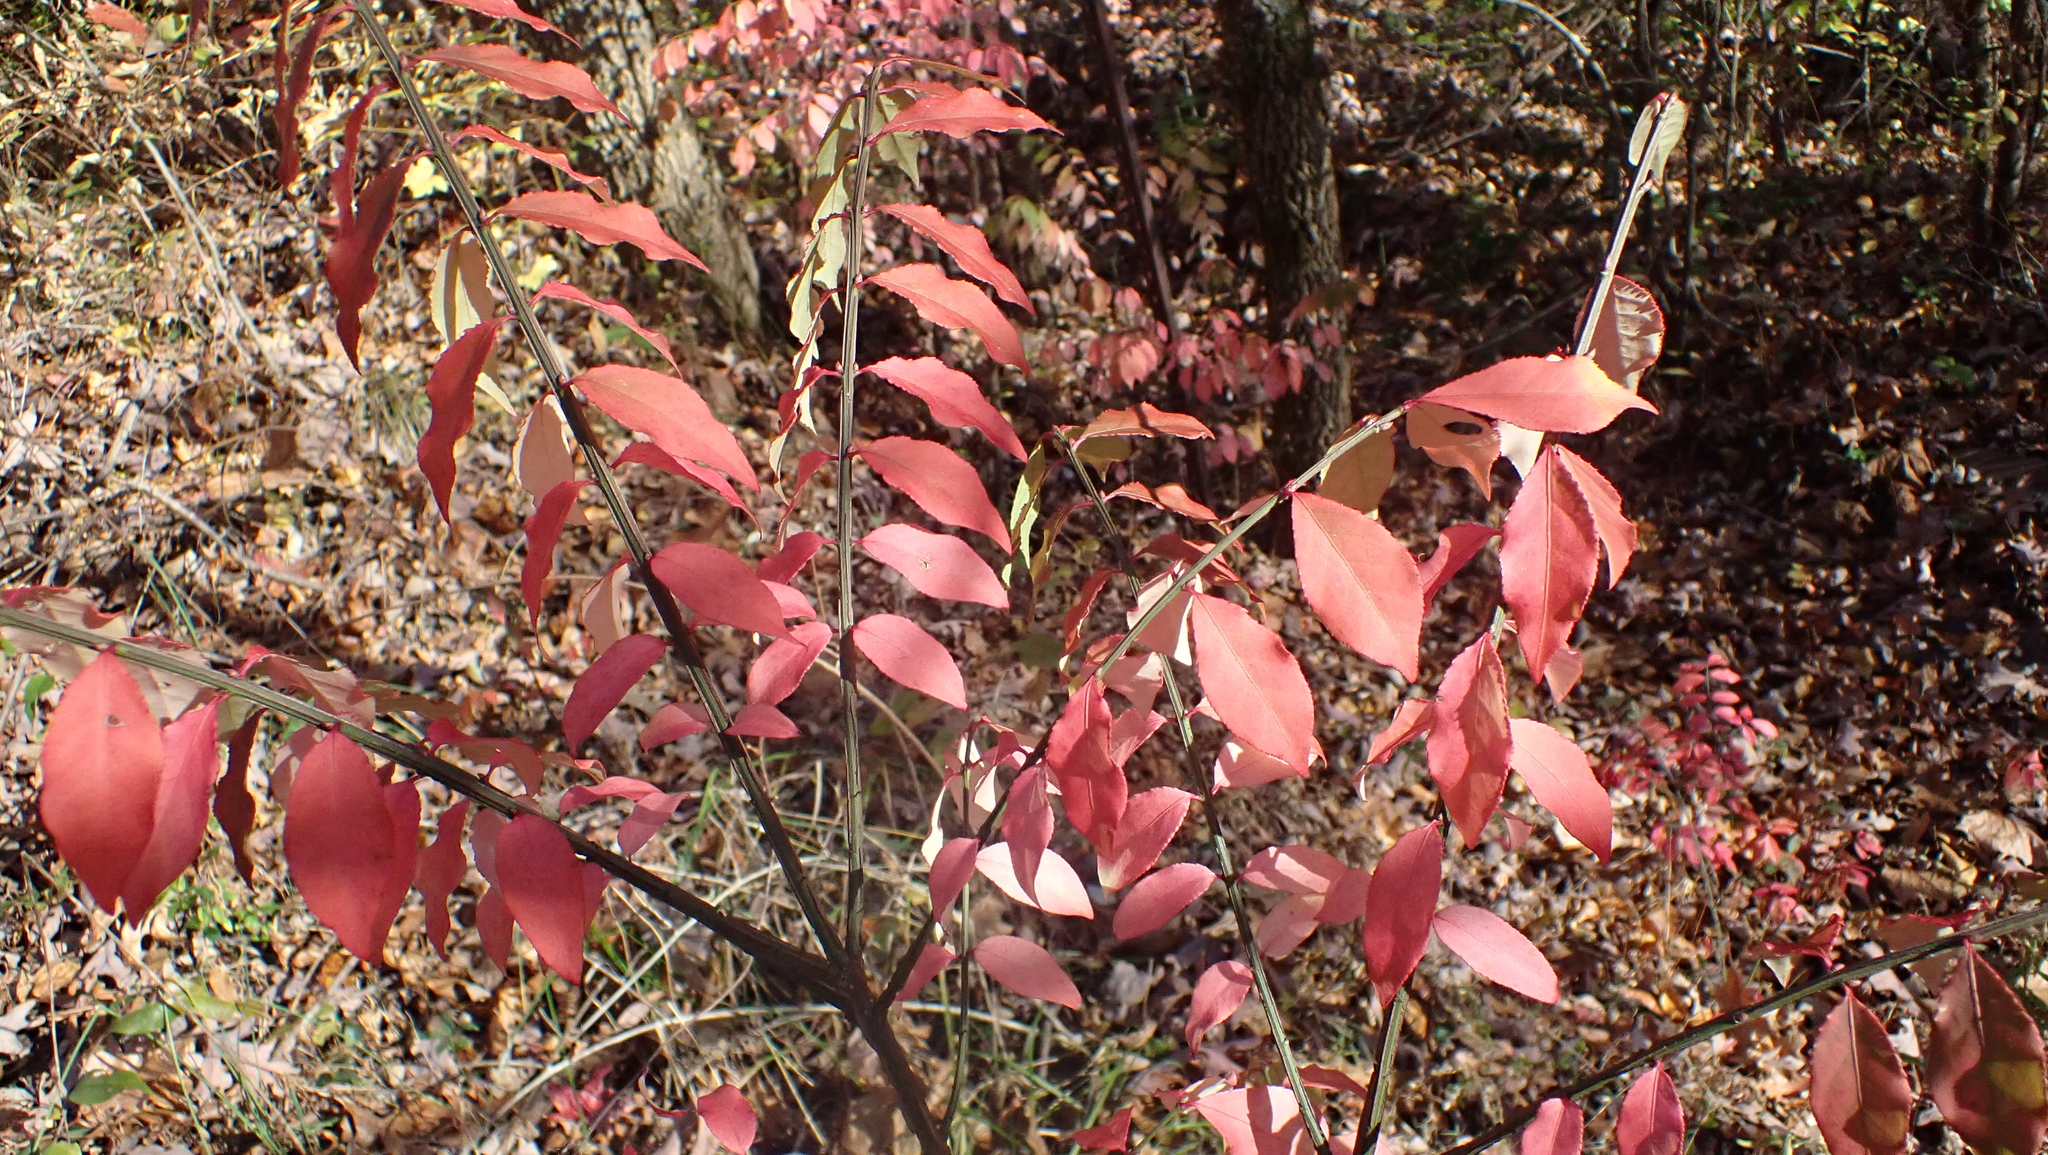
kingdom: Plantae
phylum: Tracheophyta
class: Magnoliopsida
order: Celastrales
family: Celastraceae
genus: Euonymus
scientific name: Euonymus alatus
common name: Winged euonymus
